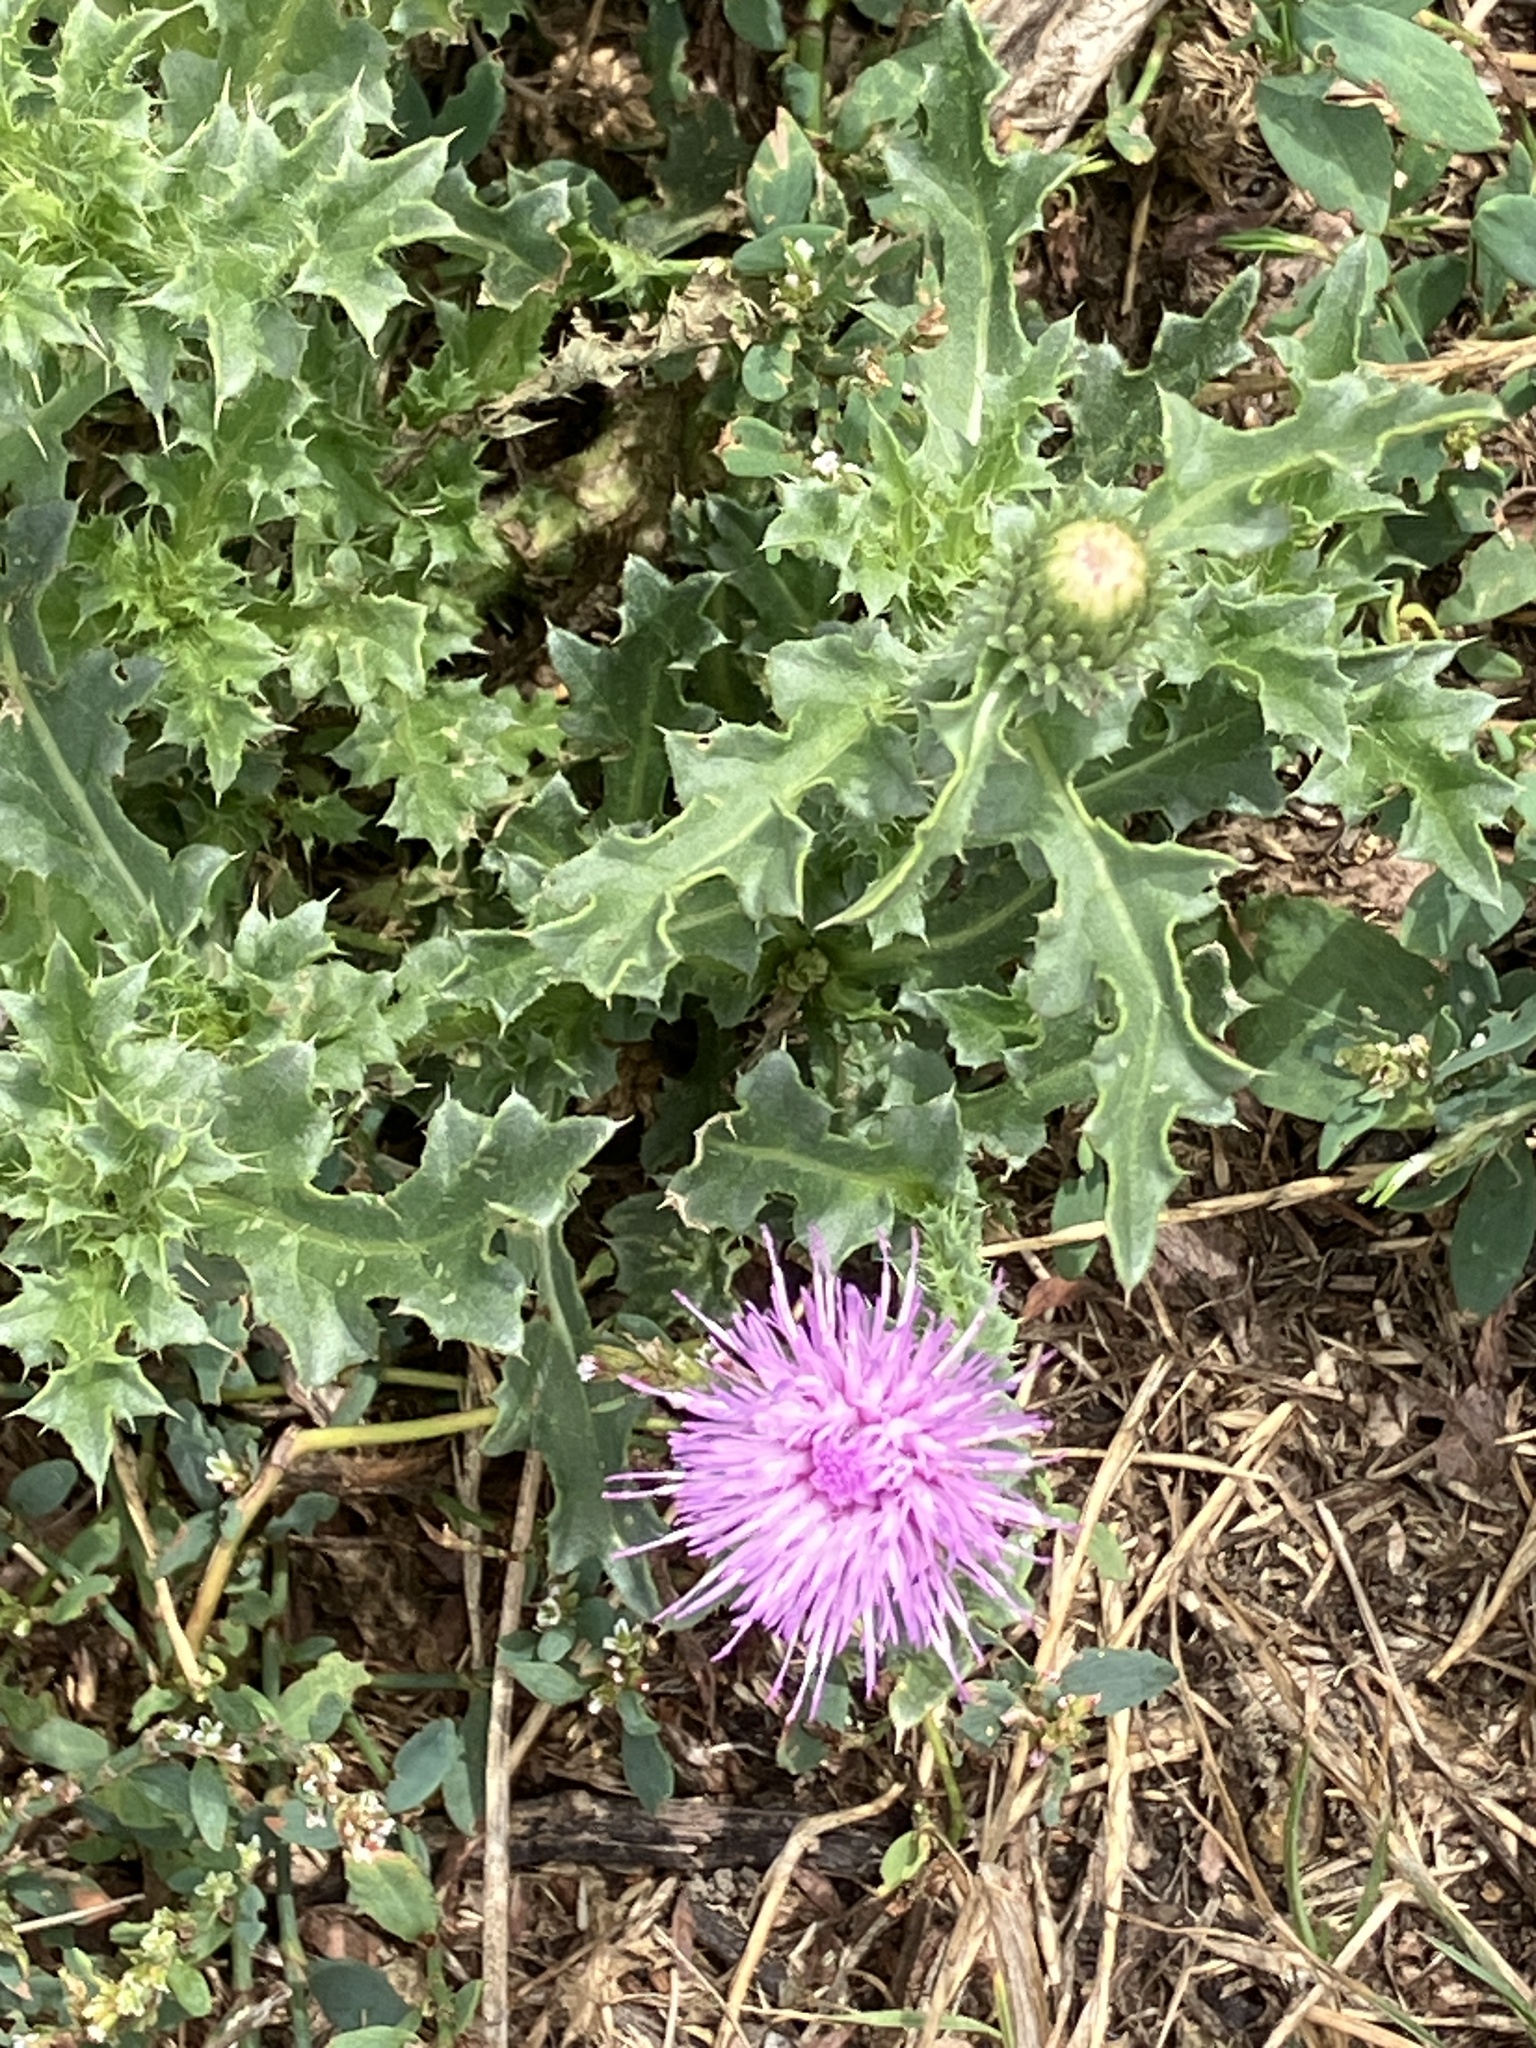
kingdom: Plantae
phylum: Tracheophyta
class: Magnoliopsida
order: Asterales
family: Asteraceae
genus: Carduus
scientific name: Carduus acanthoides
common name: Plumeless thistle
